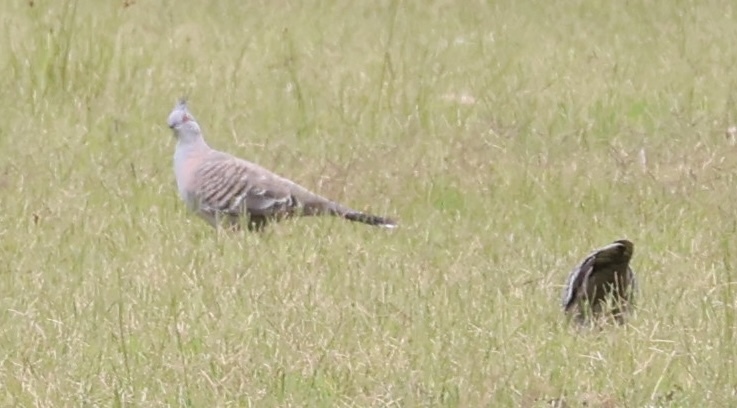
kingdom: Animalia
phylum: Chordata
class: Aves
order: Columbiformes
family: Columbidae
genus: Ocyphaps
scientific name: Ocyphaps lophotes
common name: Crested pigeon
